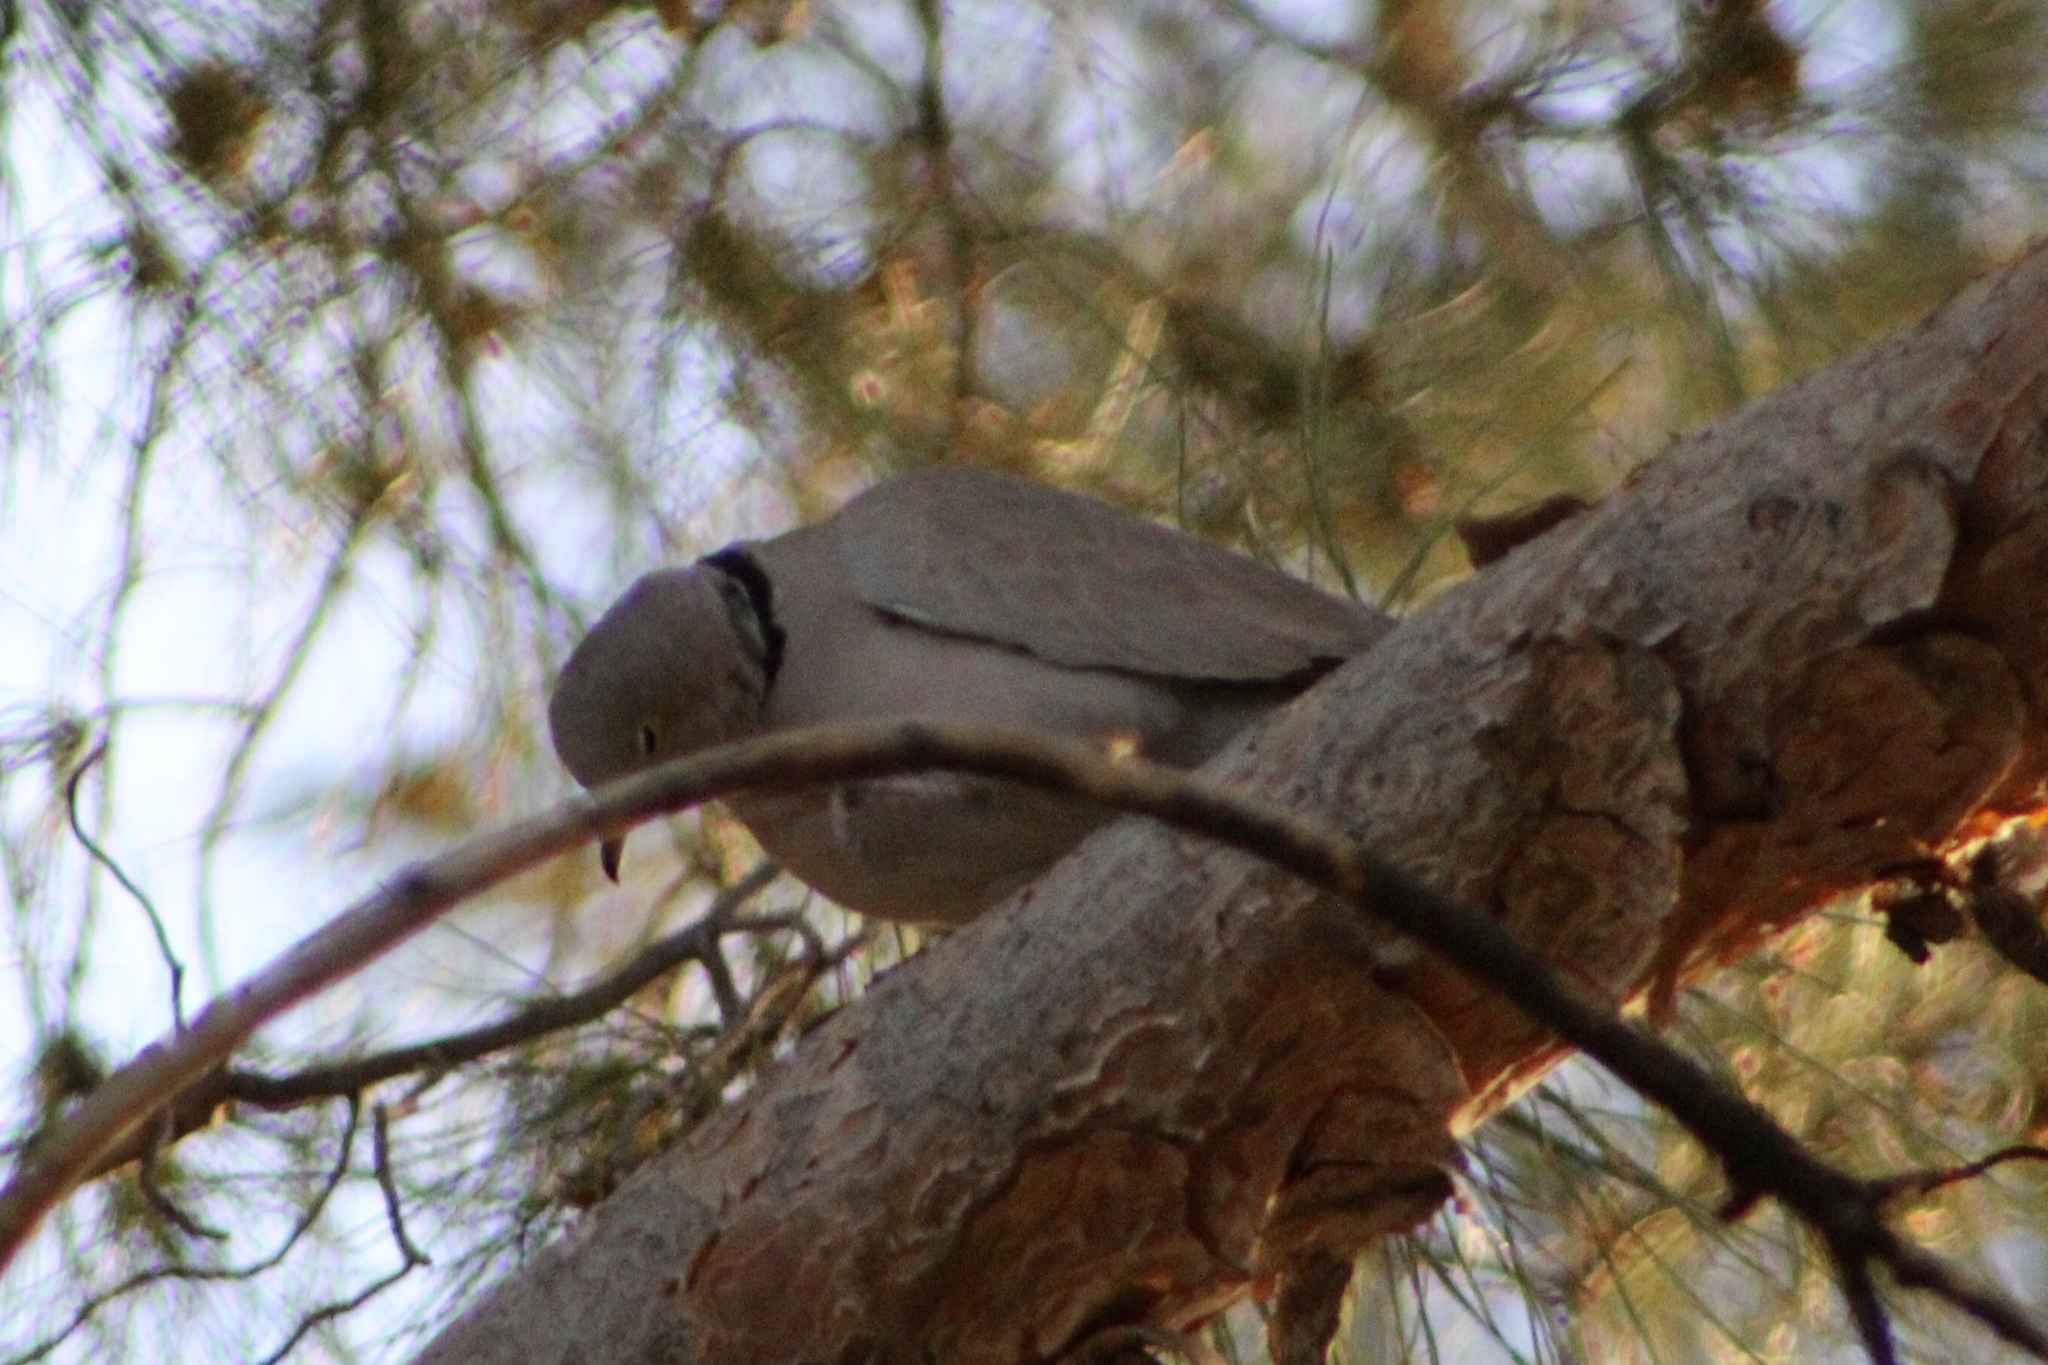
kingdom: Animalia
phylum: Chordata
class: Aves
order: Columbiformes
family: Columbidae
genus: Streptopelia
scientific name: Streptopelia decaocto
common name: Eurasian collared dove
